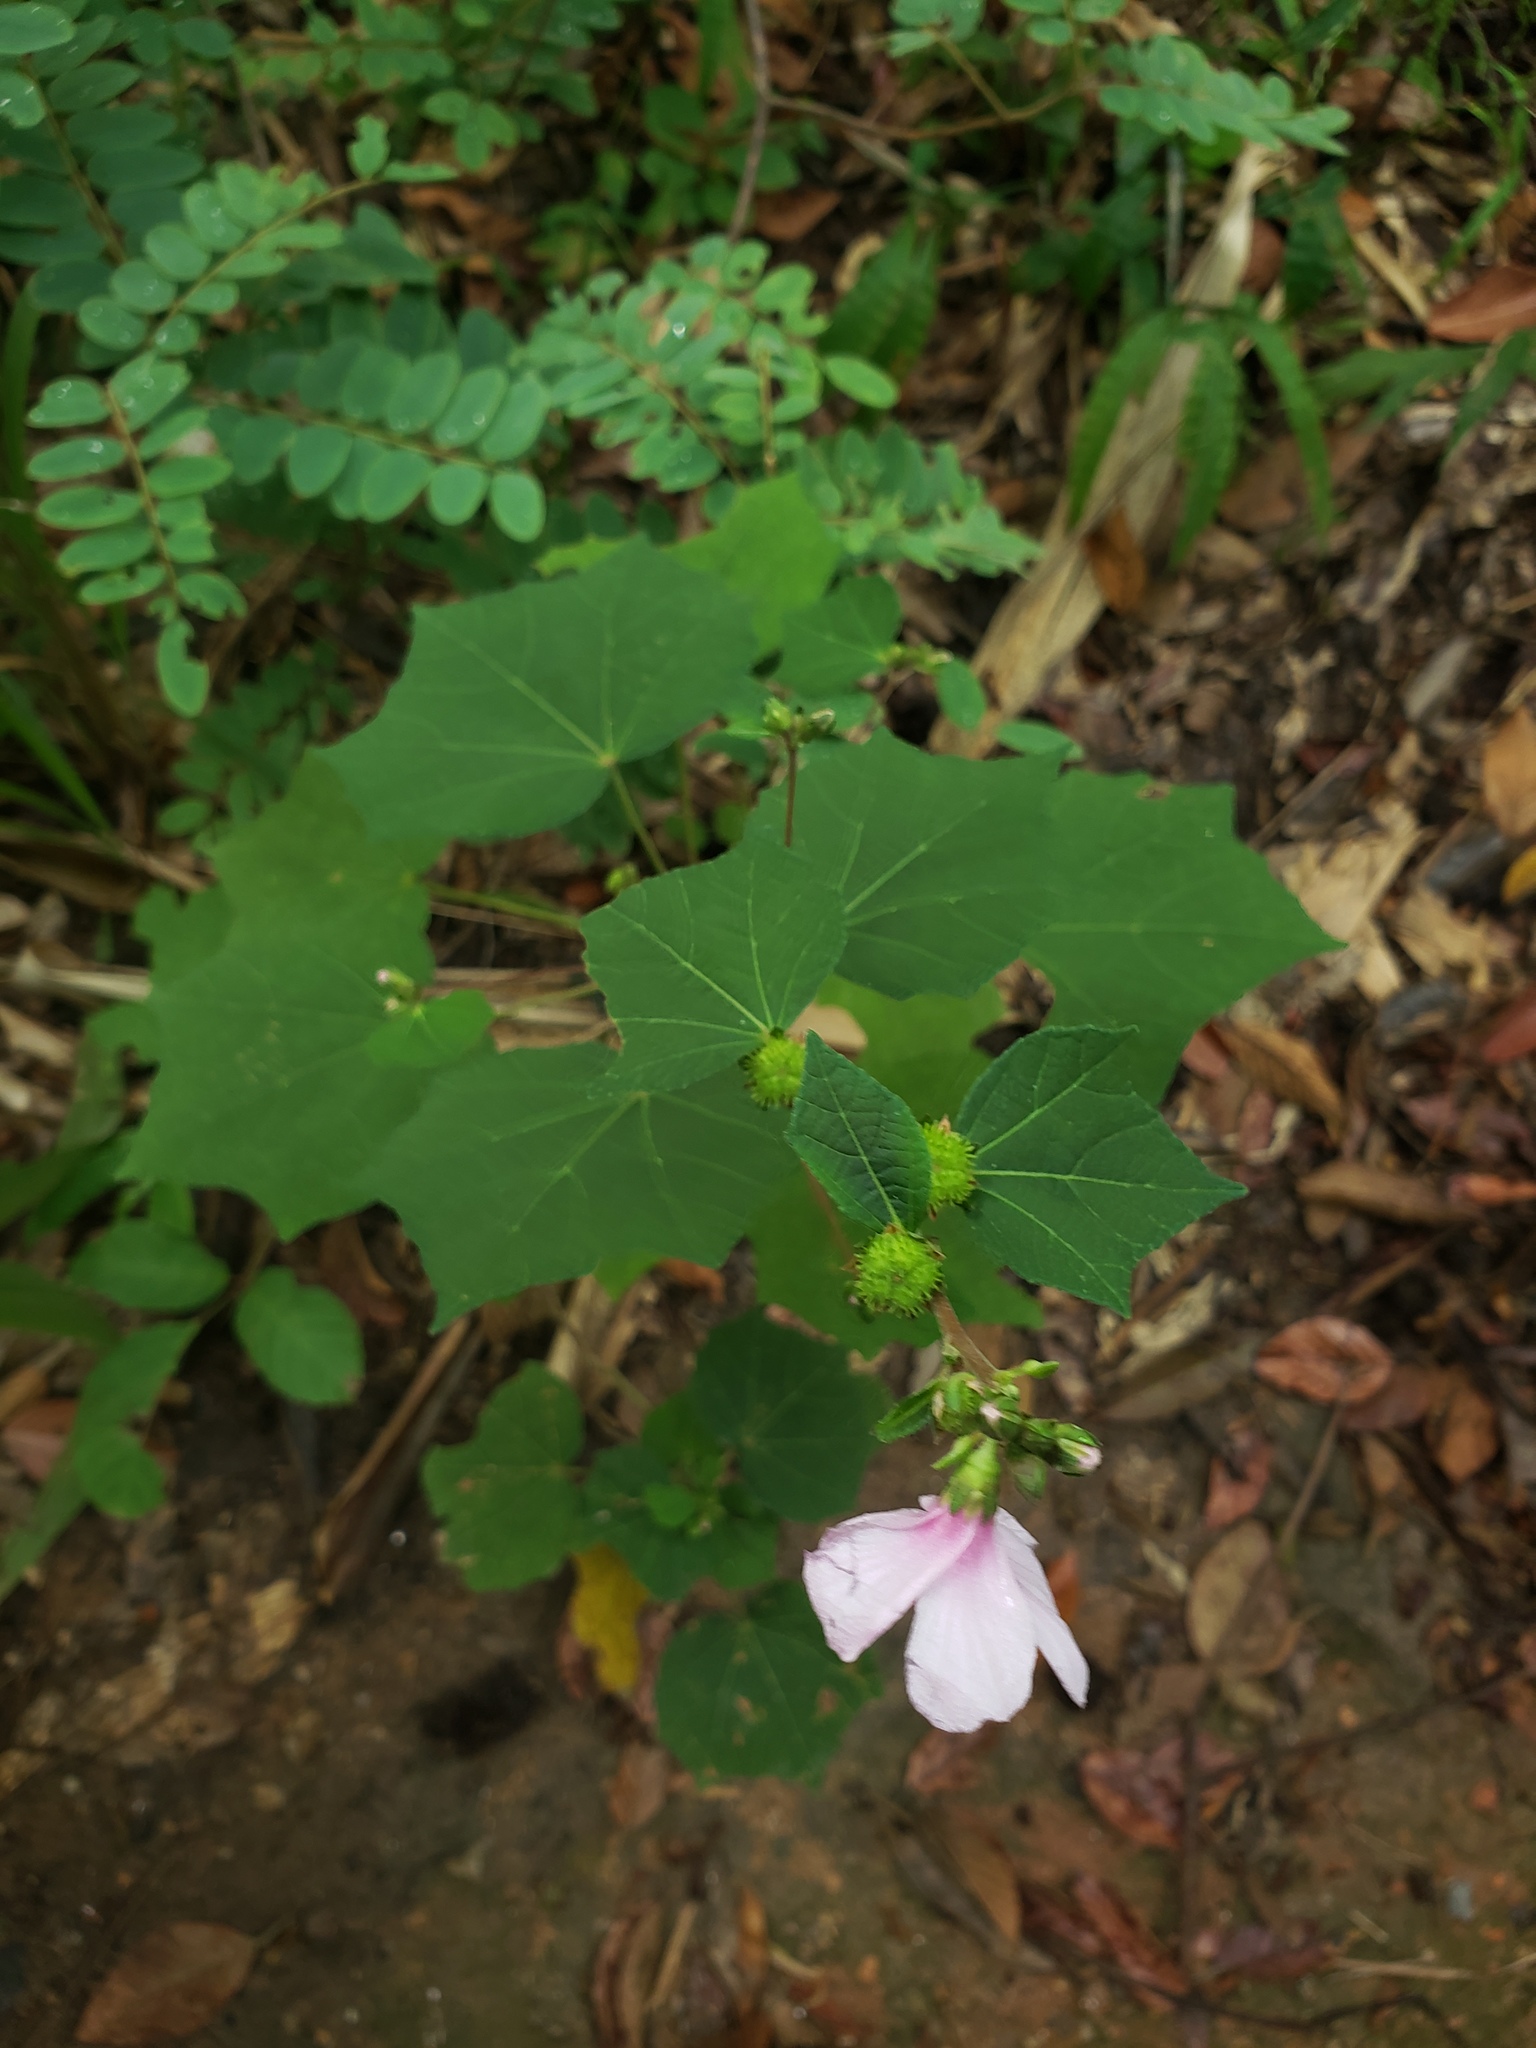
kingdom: Plantae
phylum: Tracheophyta
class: Magnoliopsida
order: Malvales
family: Malvaceae
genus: Urena
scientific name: Urena lobata
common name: Caesarweed
